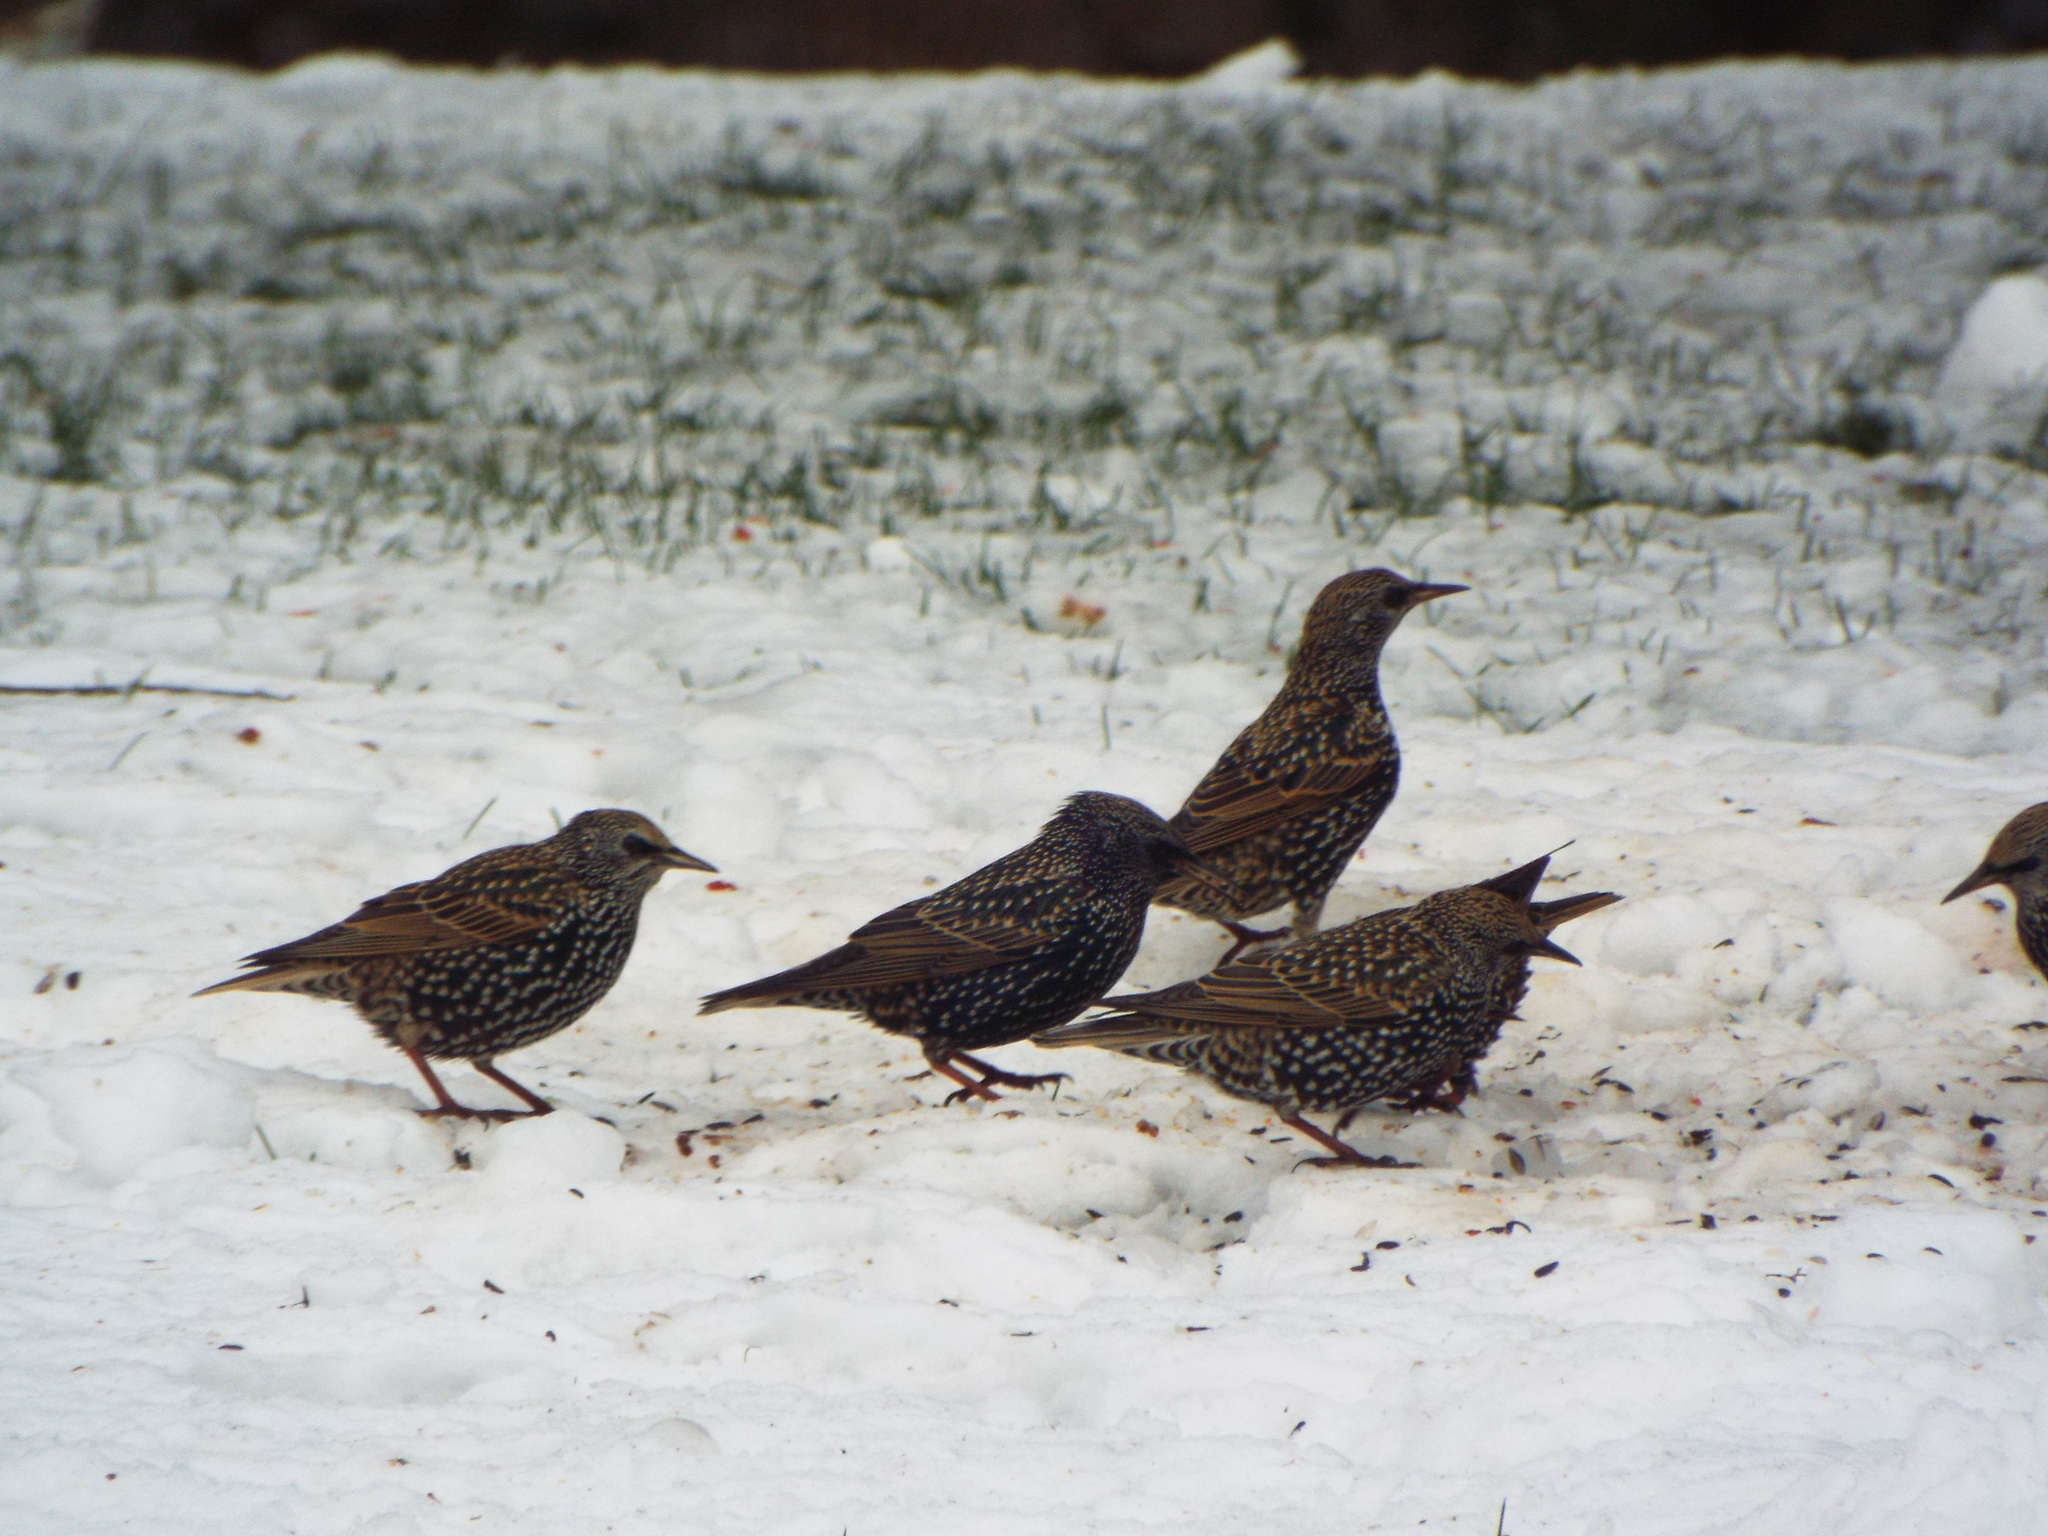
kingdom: Animalia
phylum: Chordata
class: Aves
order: Passeriformes
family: Sturnidae
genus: Sturnus
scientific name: Sturnus vulgaris
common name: Common starling
